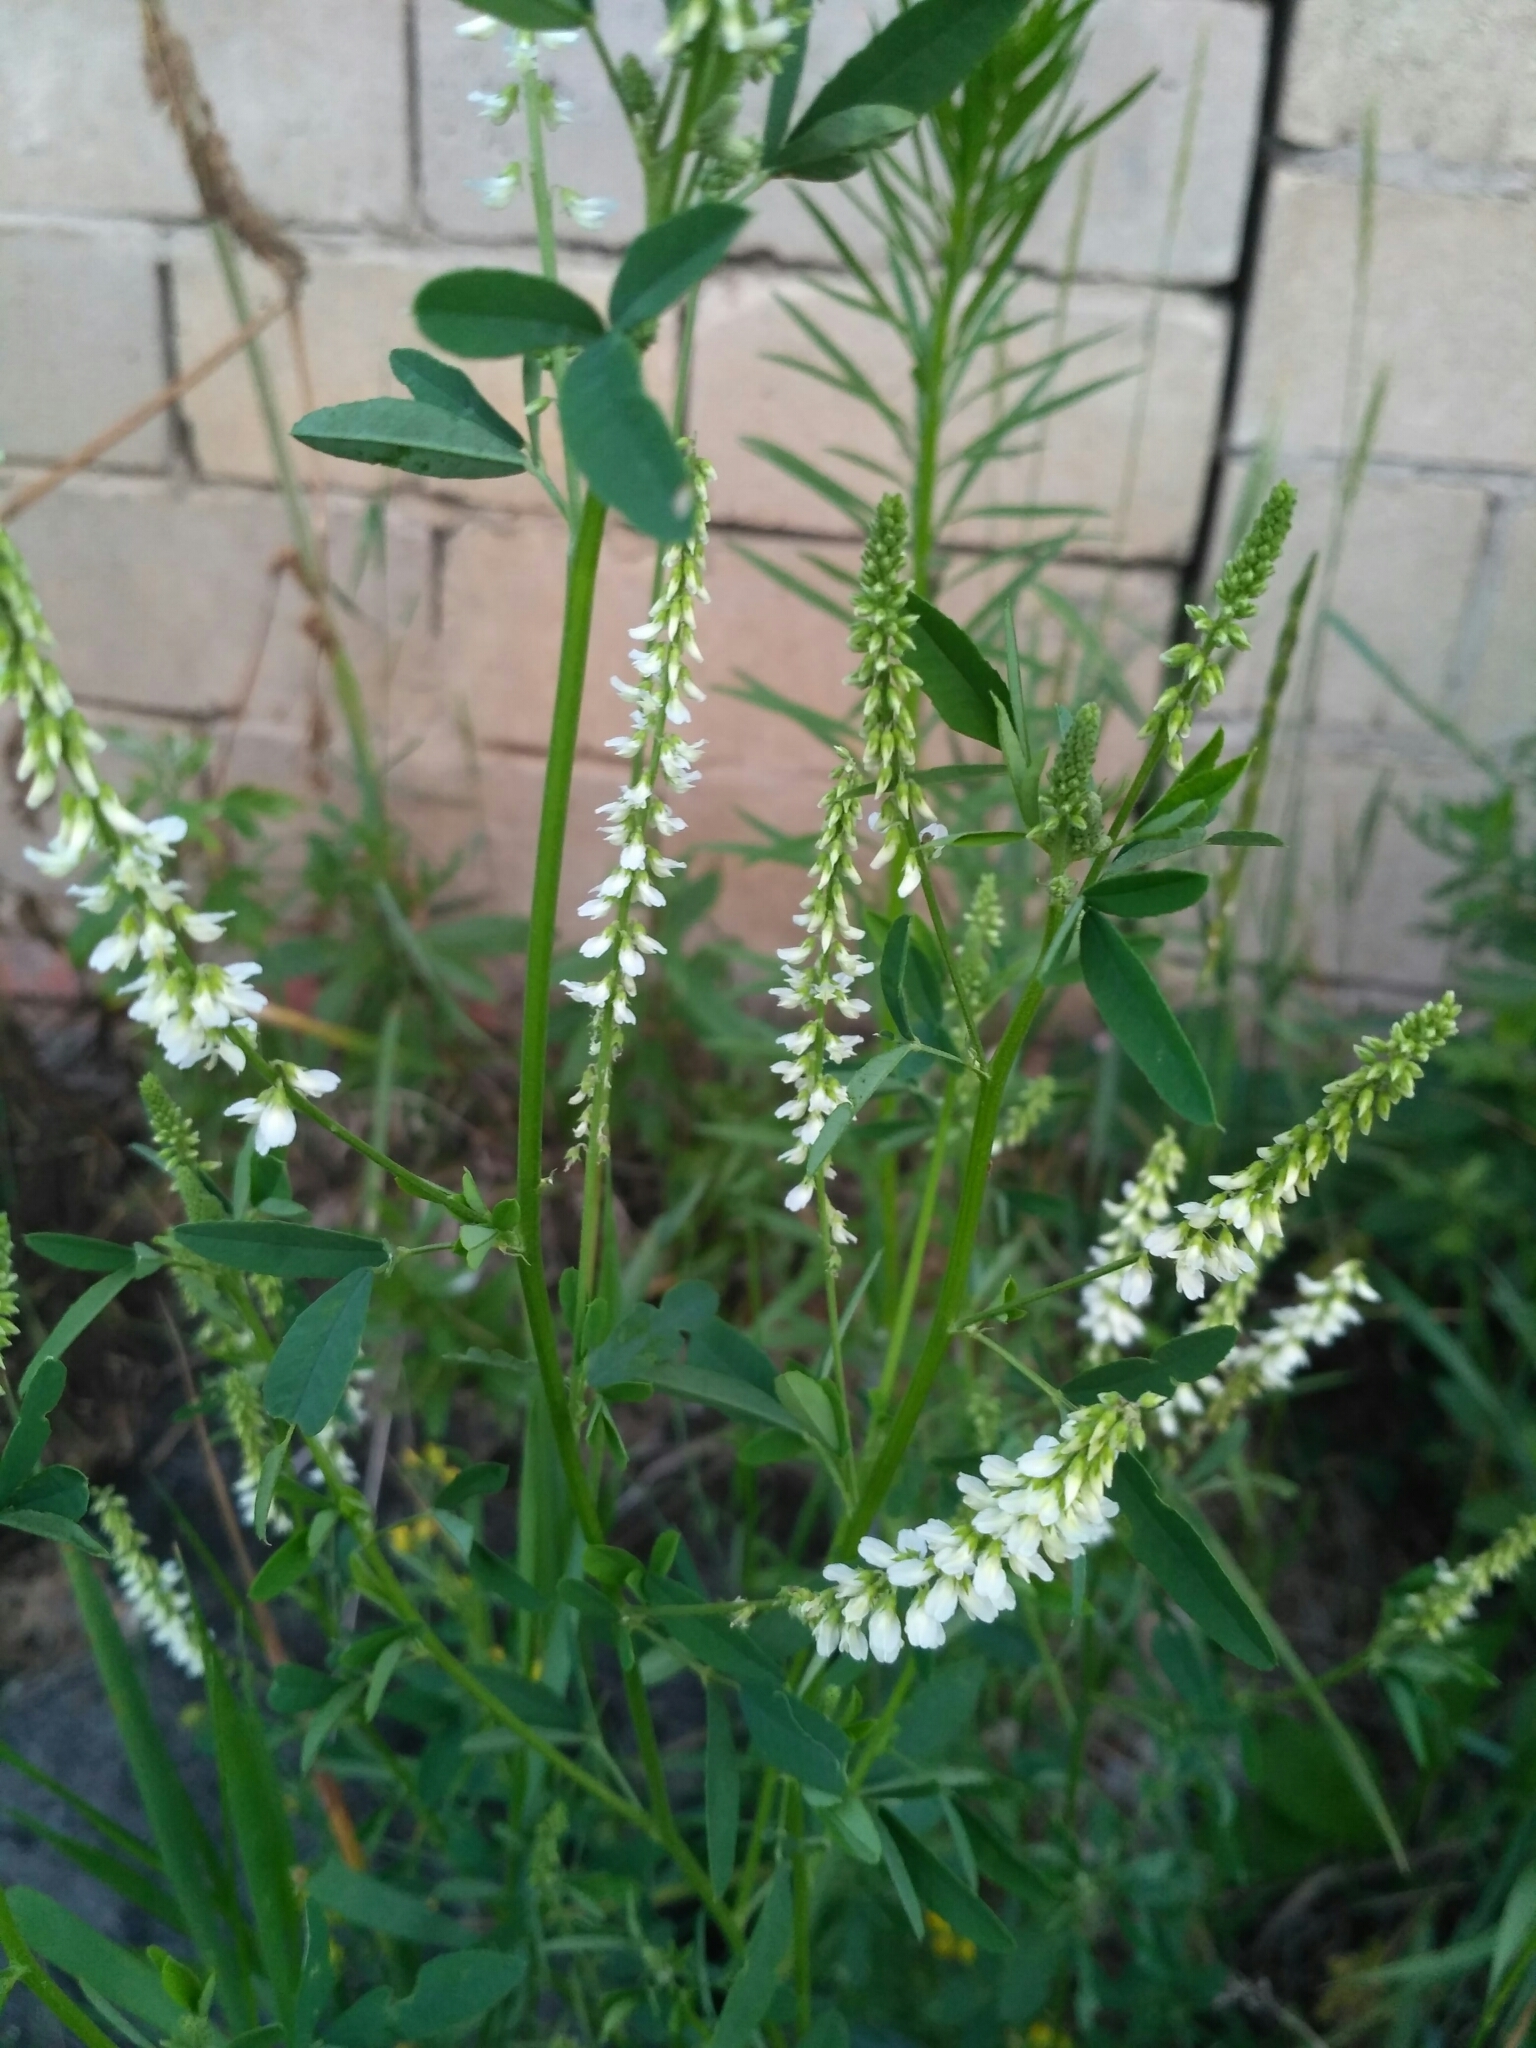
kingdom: Plantae
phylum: Tracheophyta
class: Magnoliopsida
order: Fabales
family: Fabaceae
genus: Melilotus
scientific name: Melilotus albus
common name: White melilot
